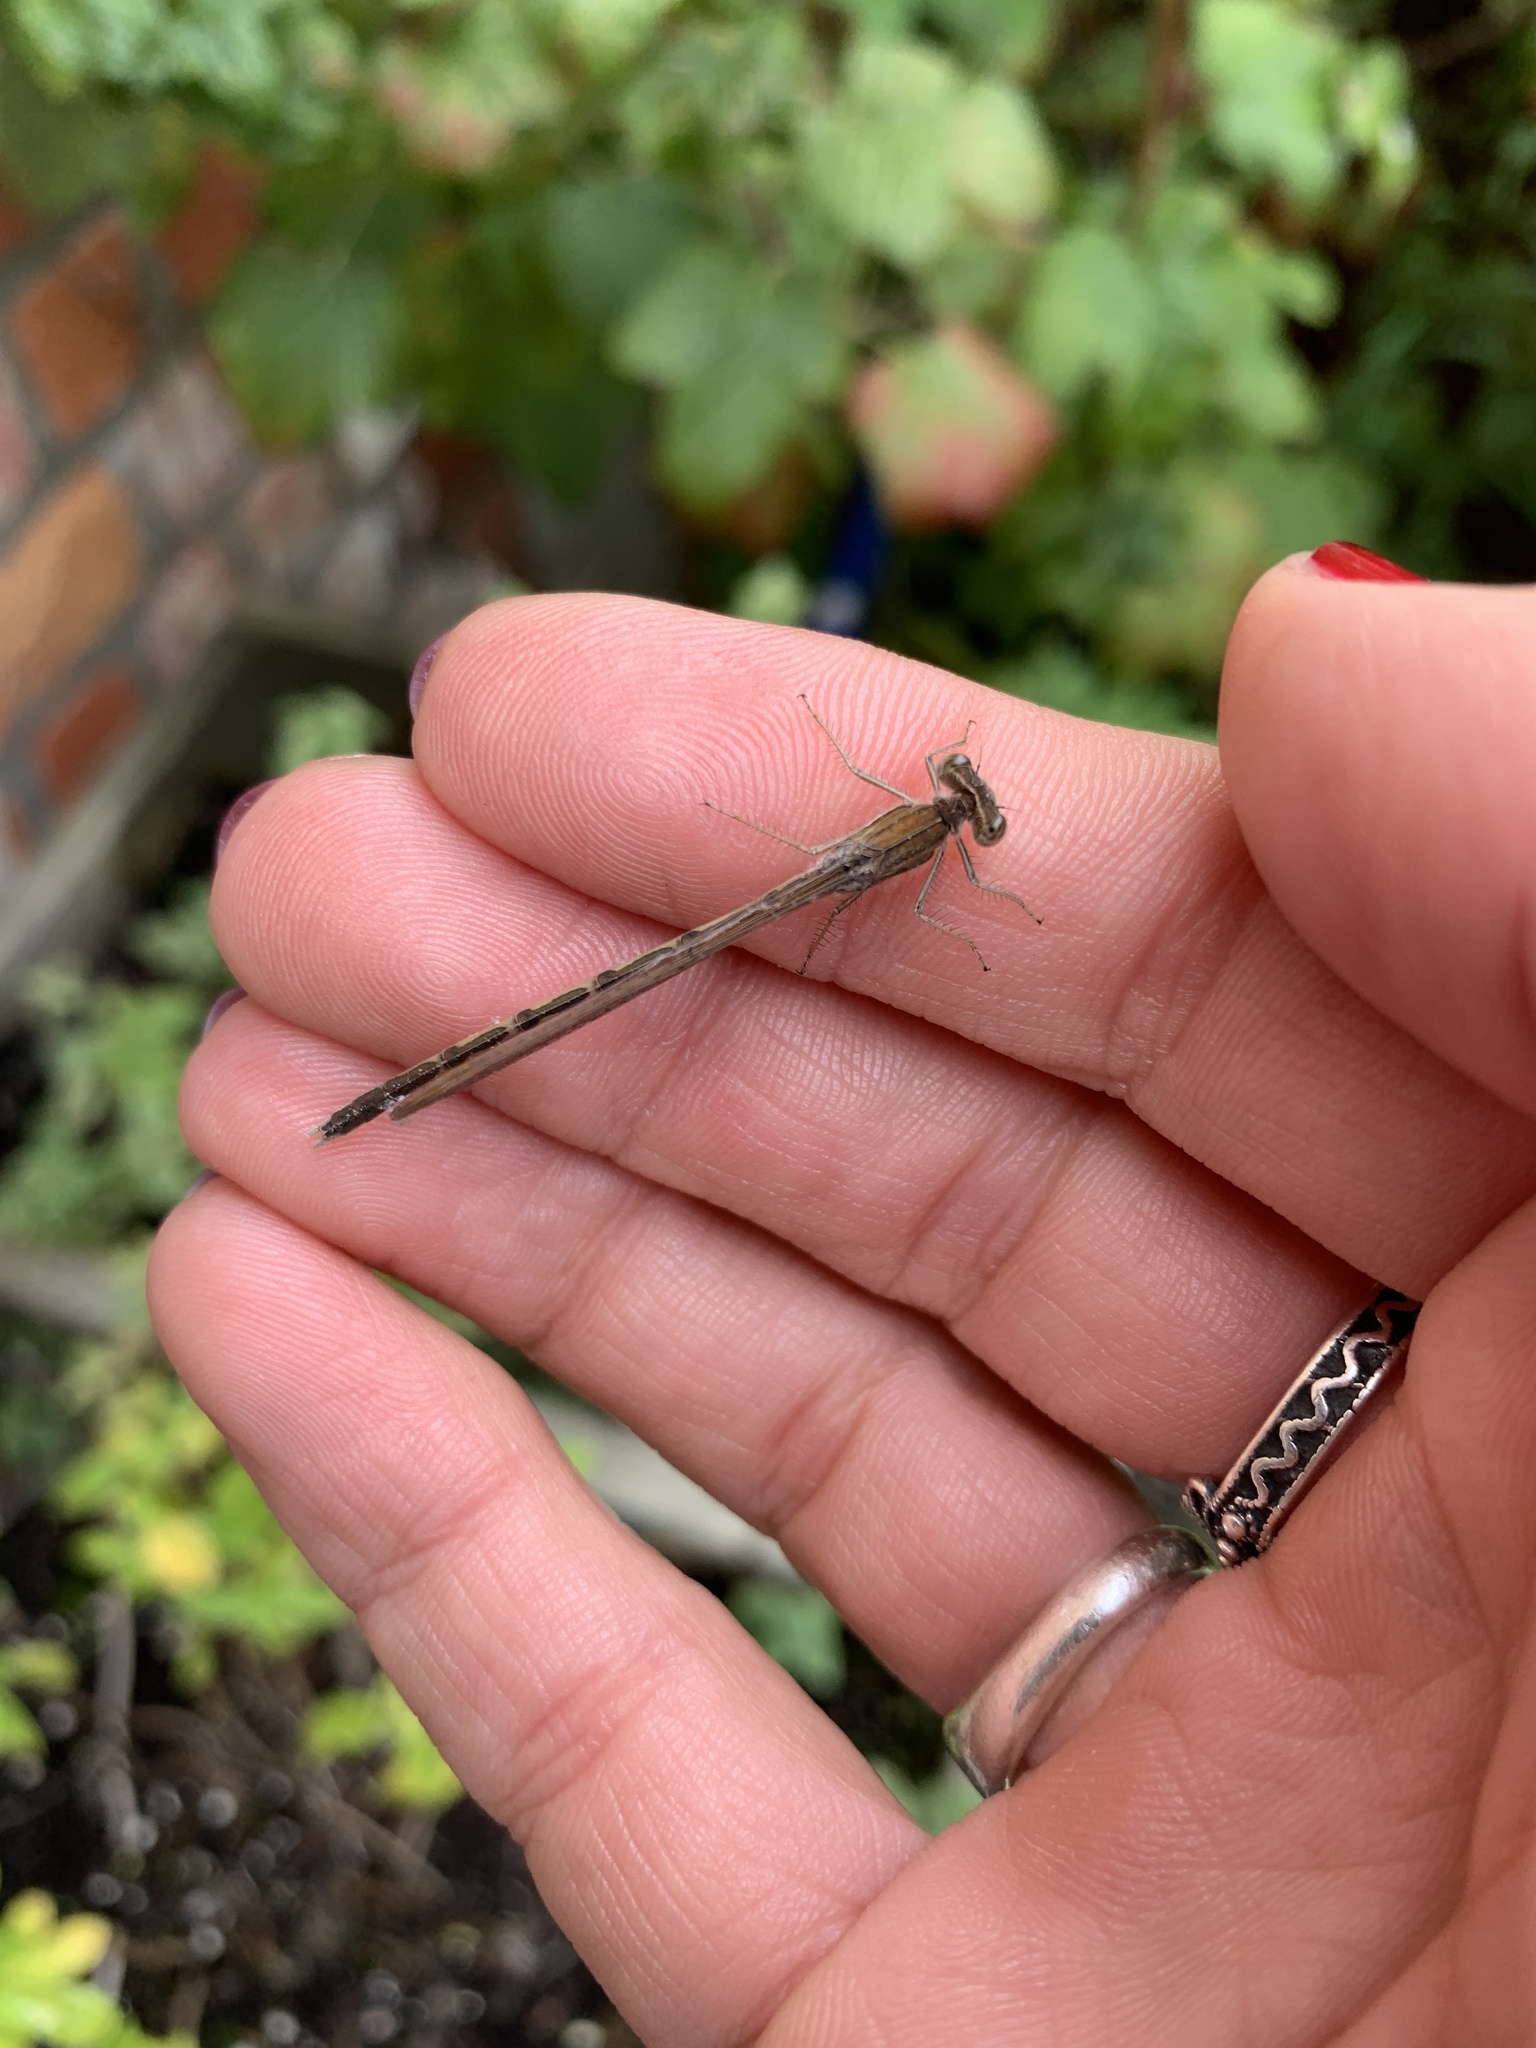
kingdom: Animalia
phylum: Arthropoda
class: Insecta
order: Odonata
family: Lestidae
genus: Sympecma
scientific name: Sympecma fusca
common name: Common winter damsel
